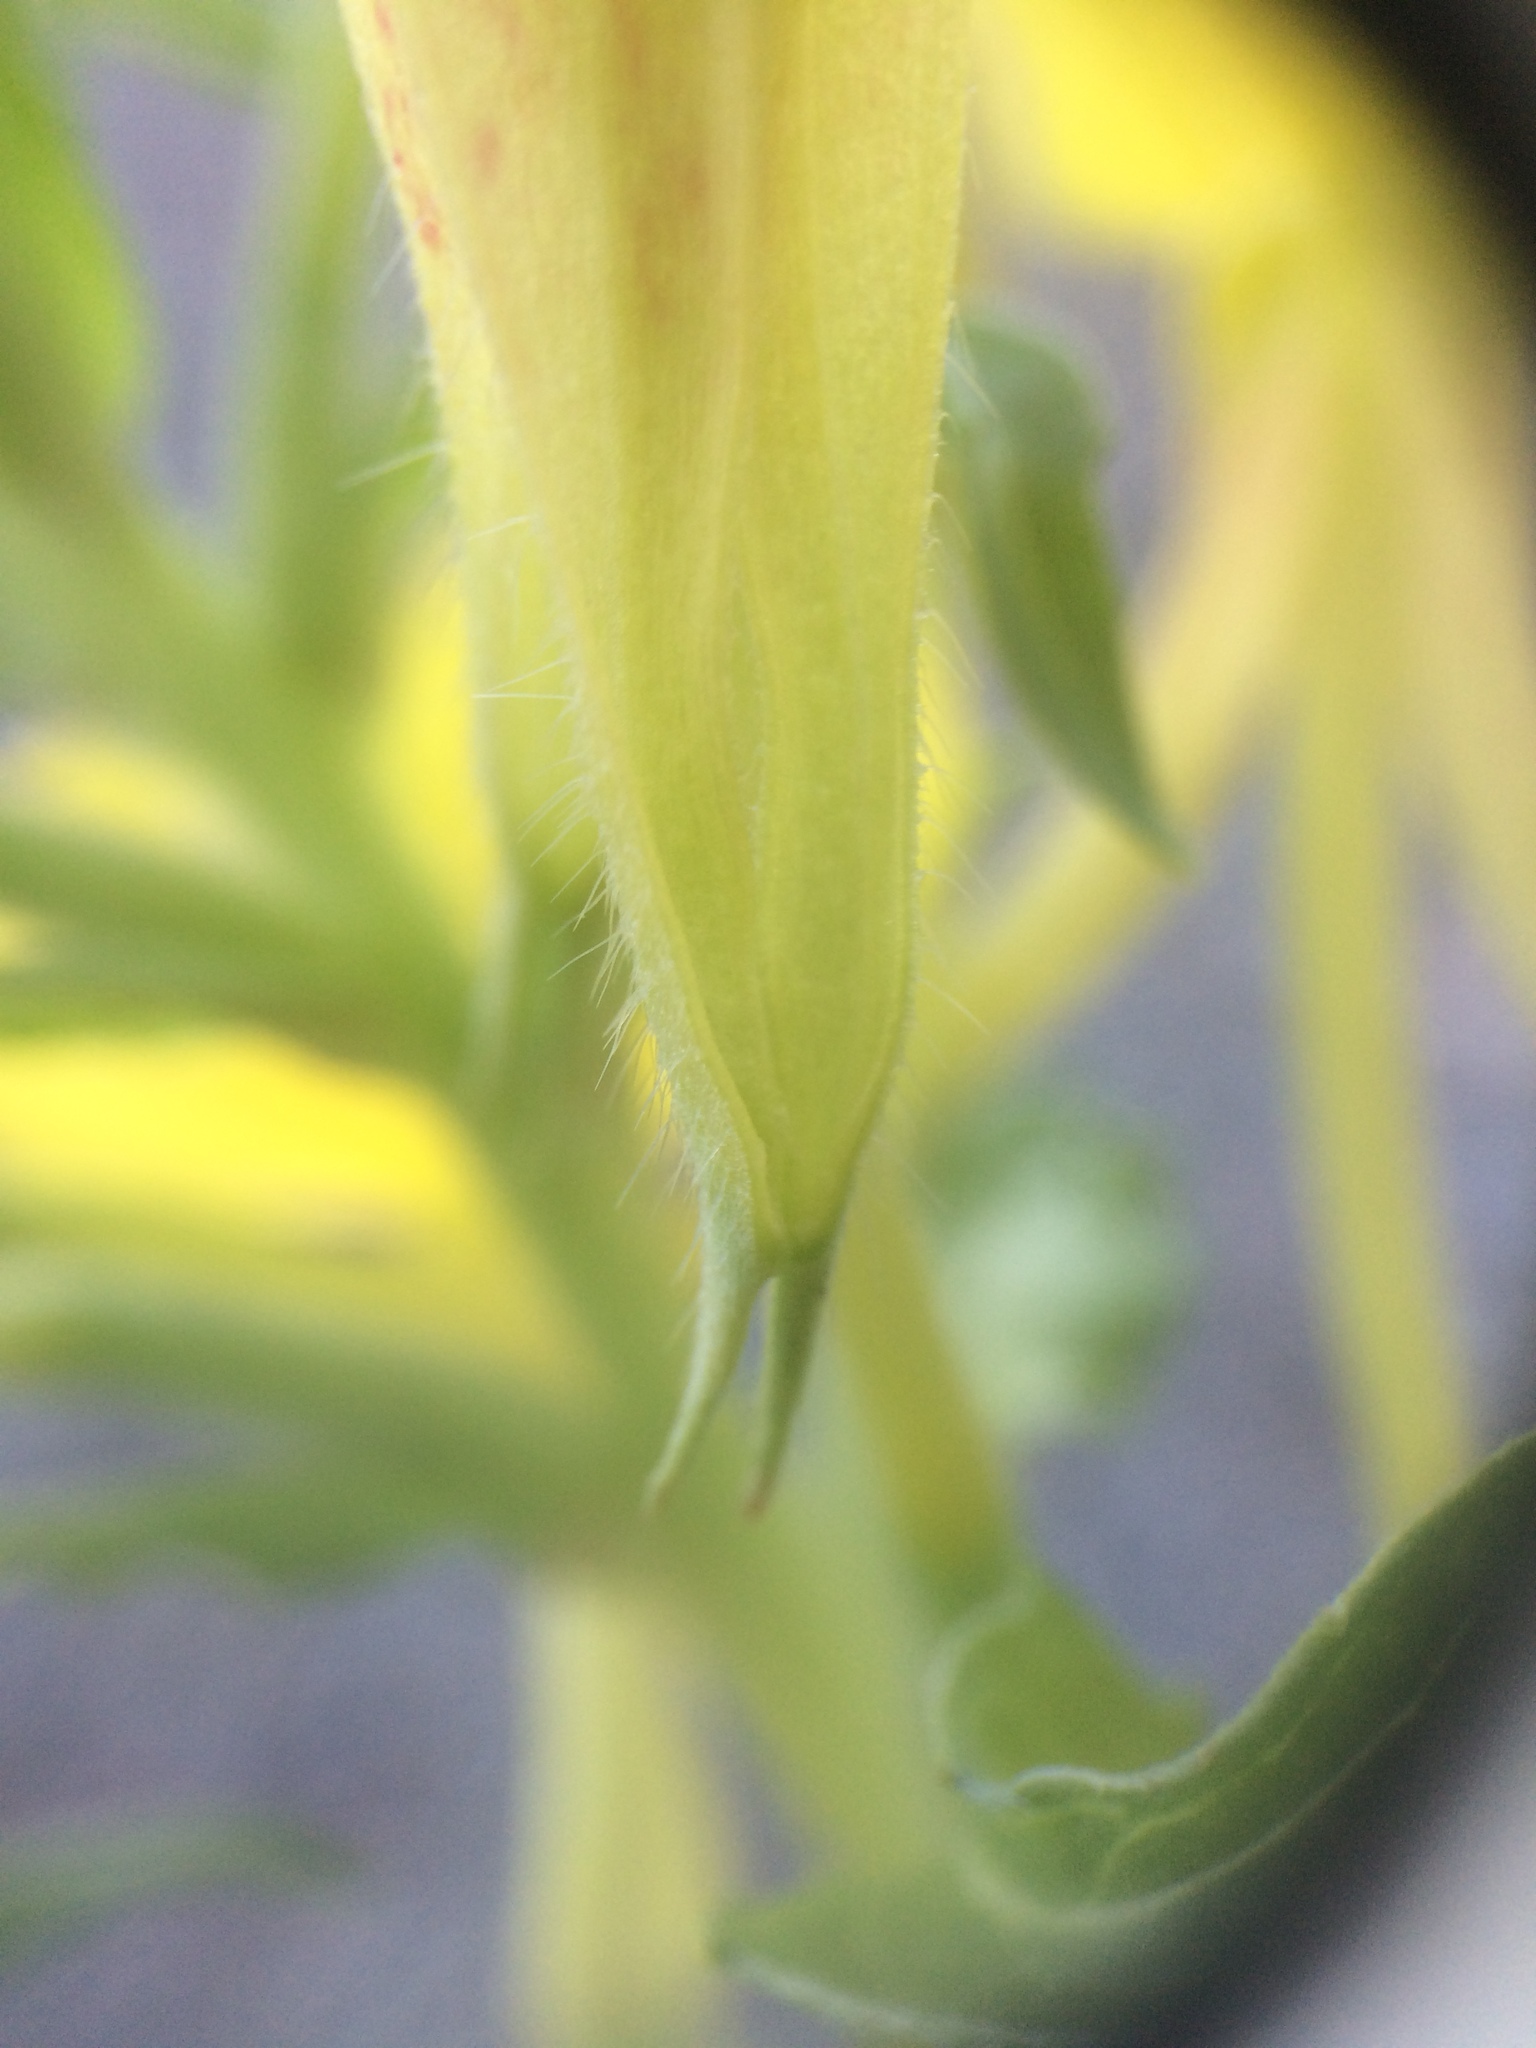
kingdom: Plantae
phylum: Tracheophyta
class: Magnoliopsida
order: Myrtales
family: Onagraceae
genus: Oenothera
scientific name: Oenothera biennis
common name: Common evening-primrose
